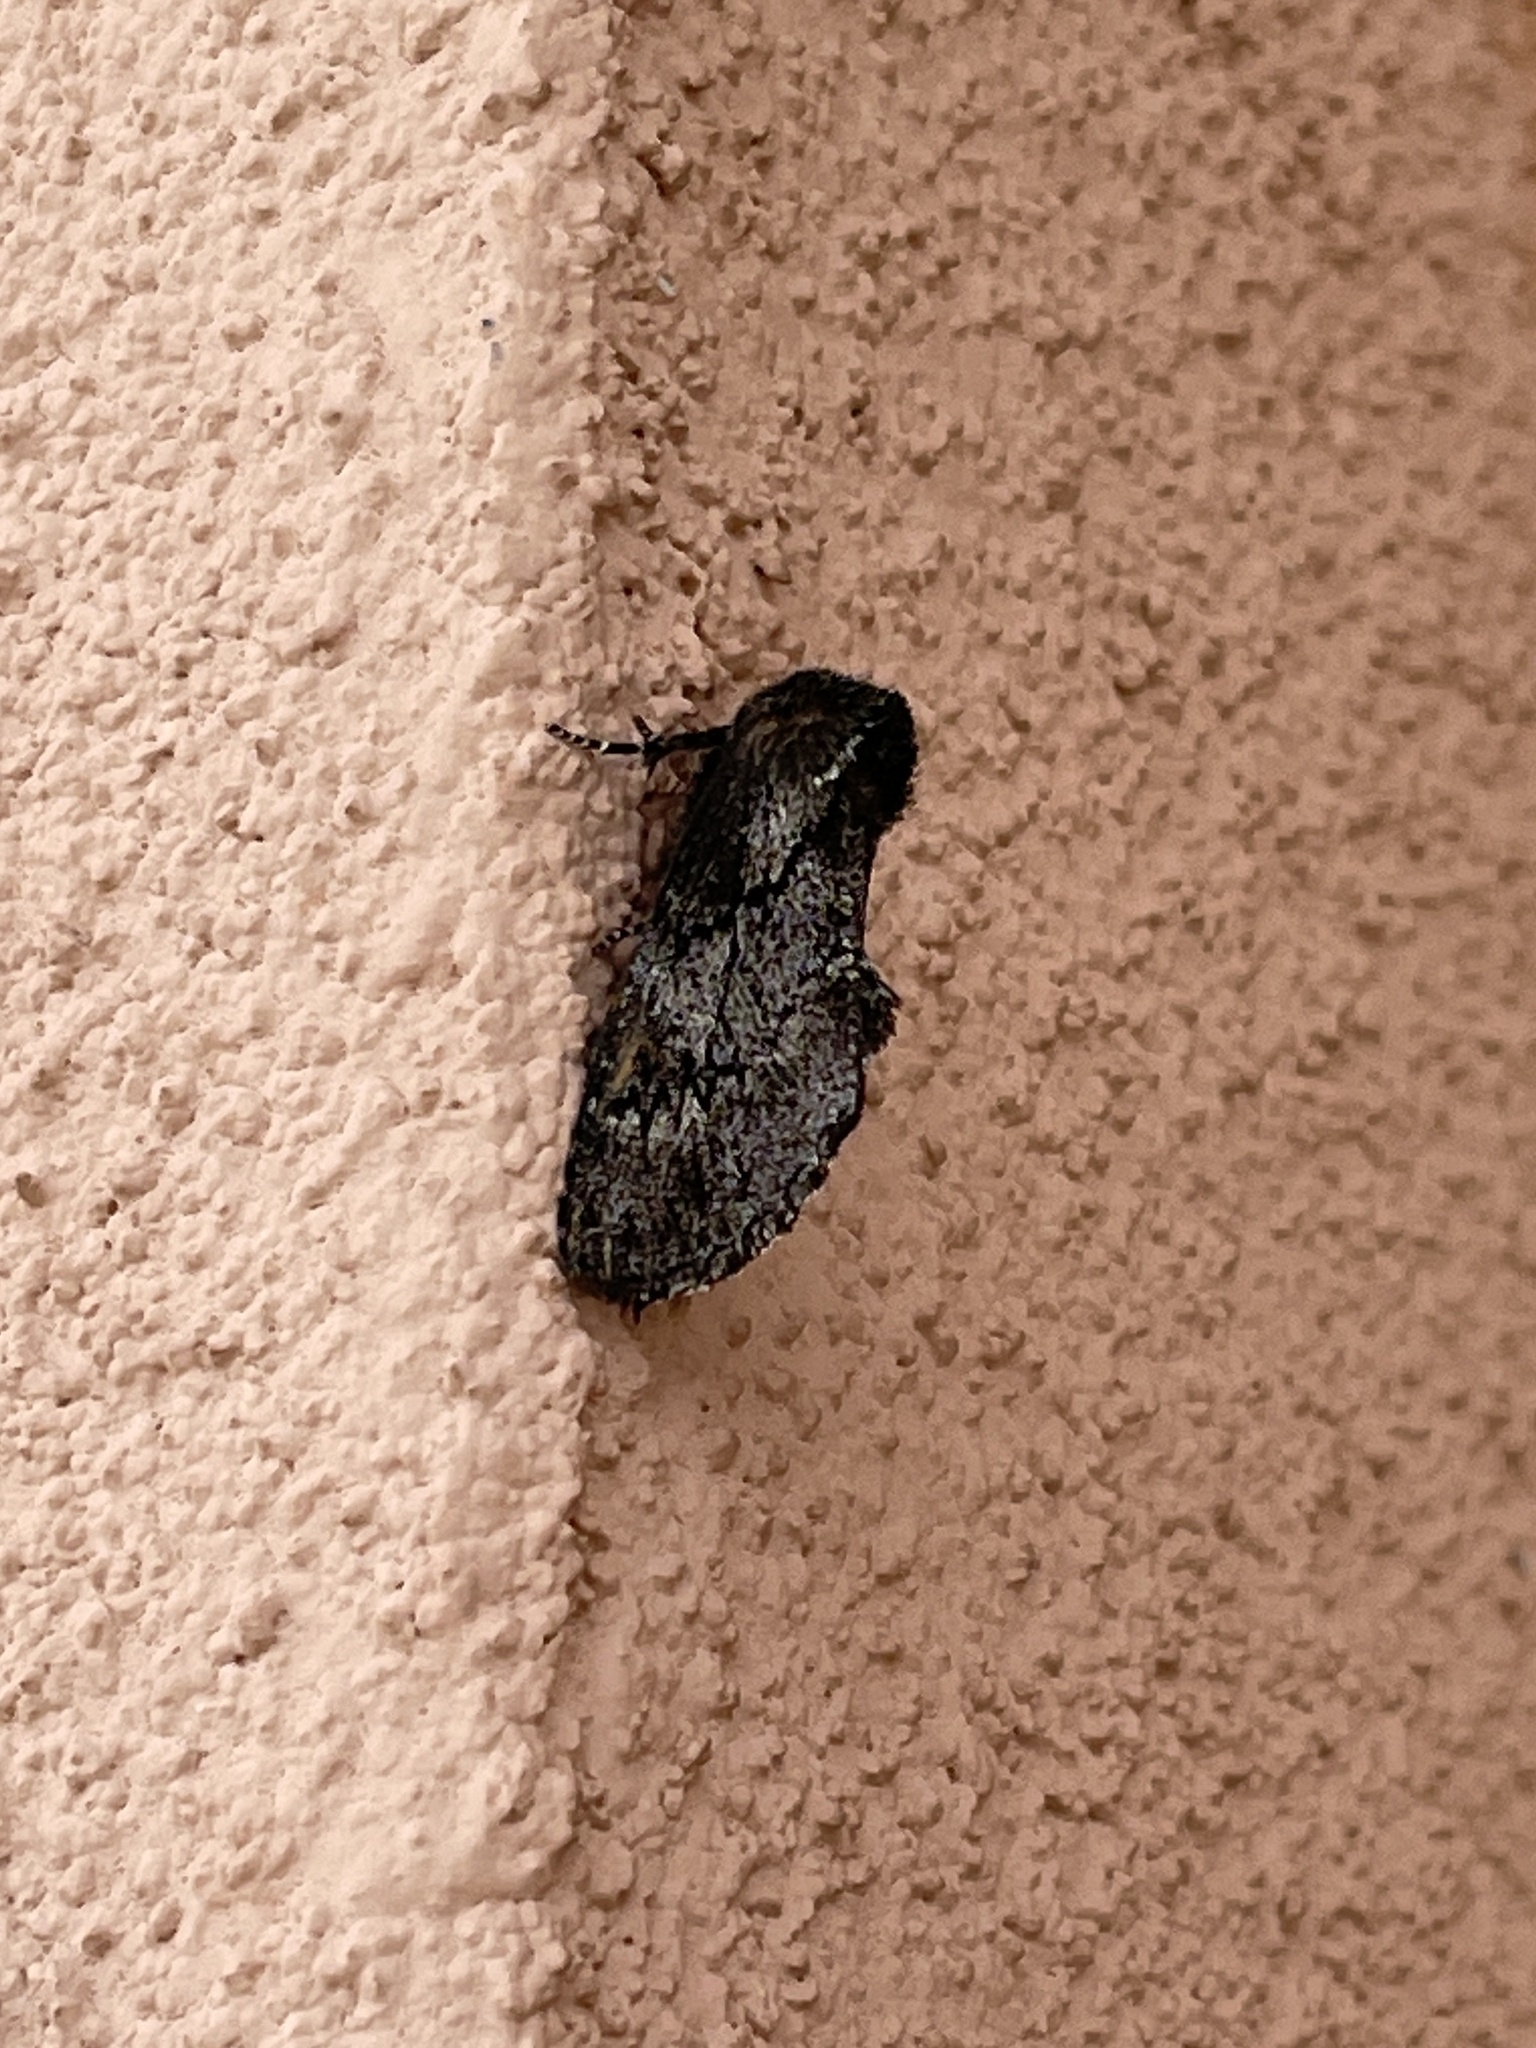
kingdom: Animalia
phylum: Arthropoda
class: Insecta
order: Lepidoptera
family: Notodontidae
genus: Cargida
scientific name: Cargida pyrrha
